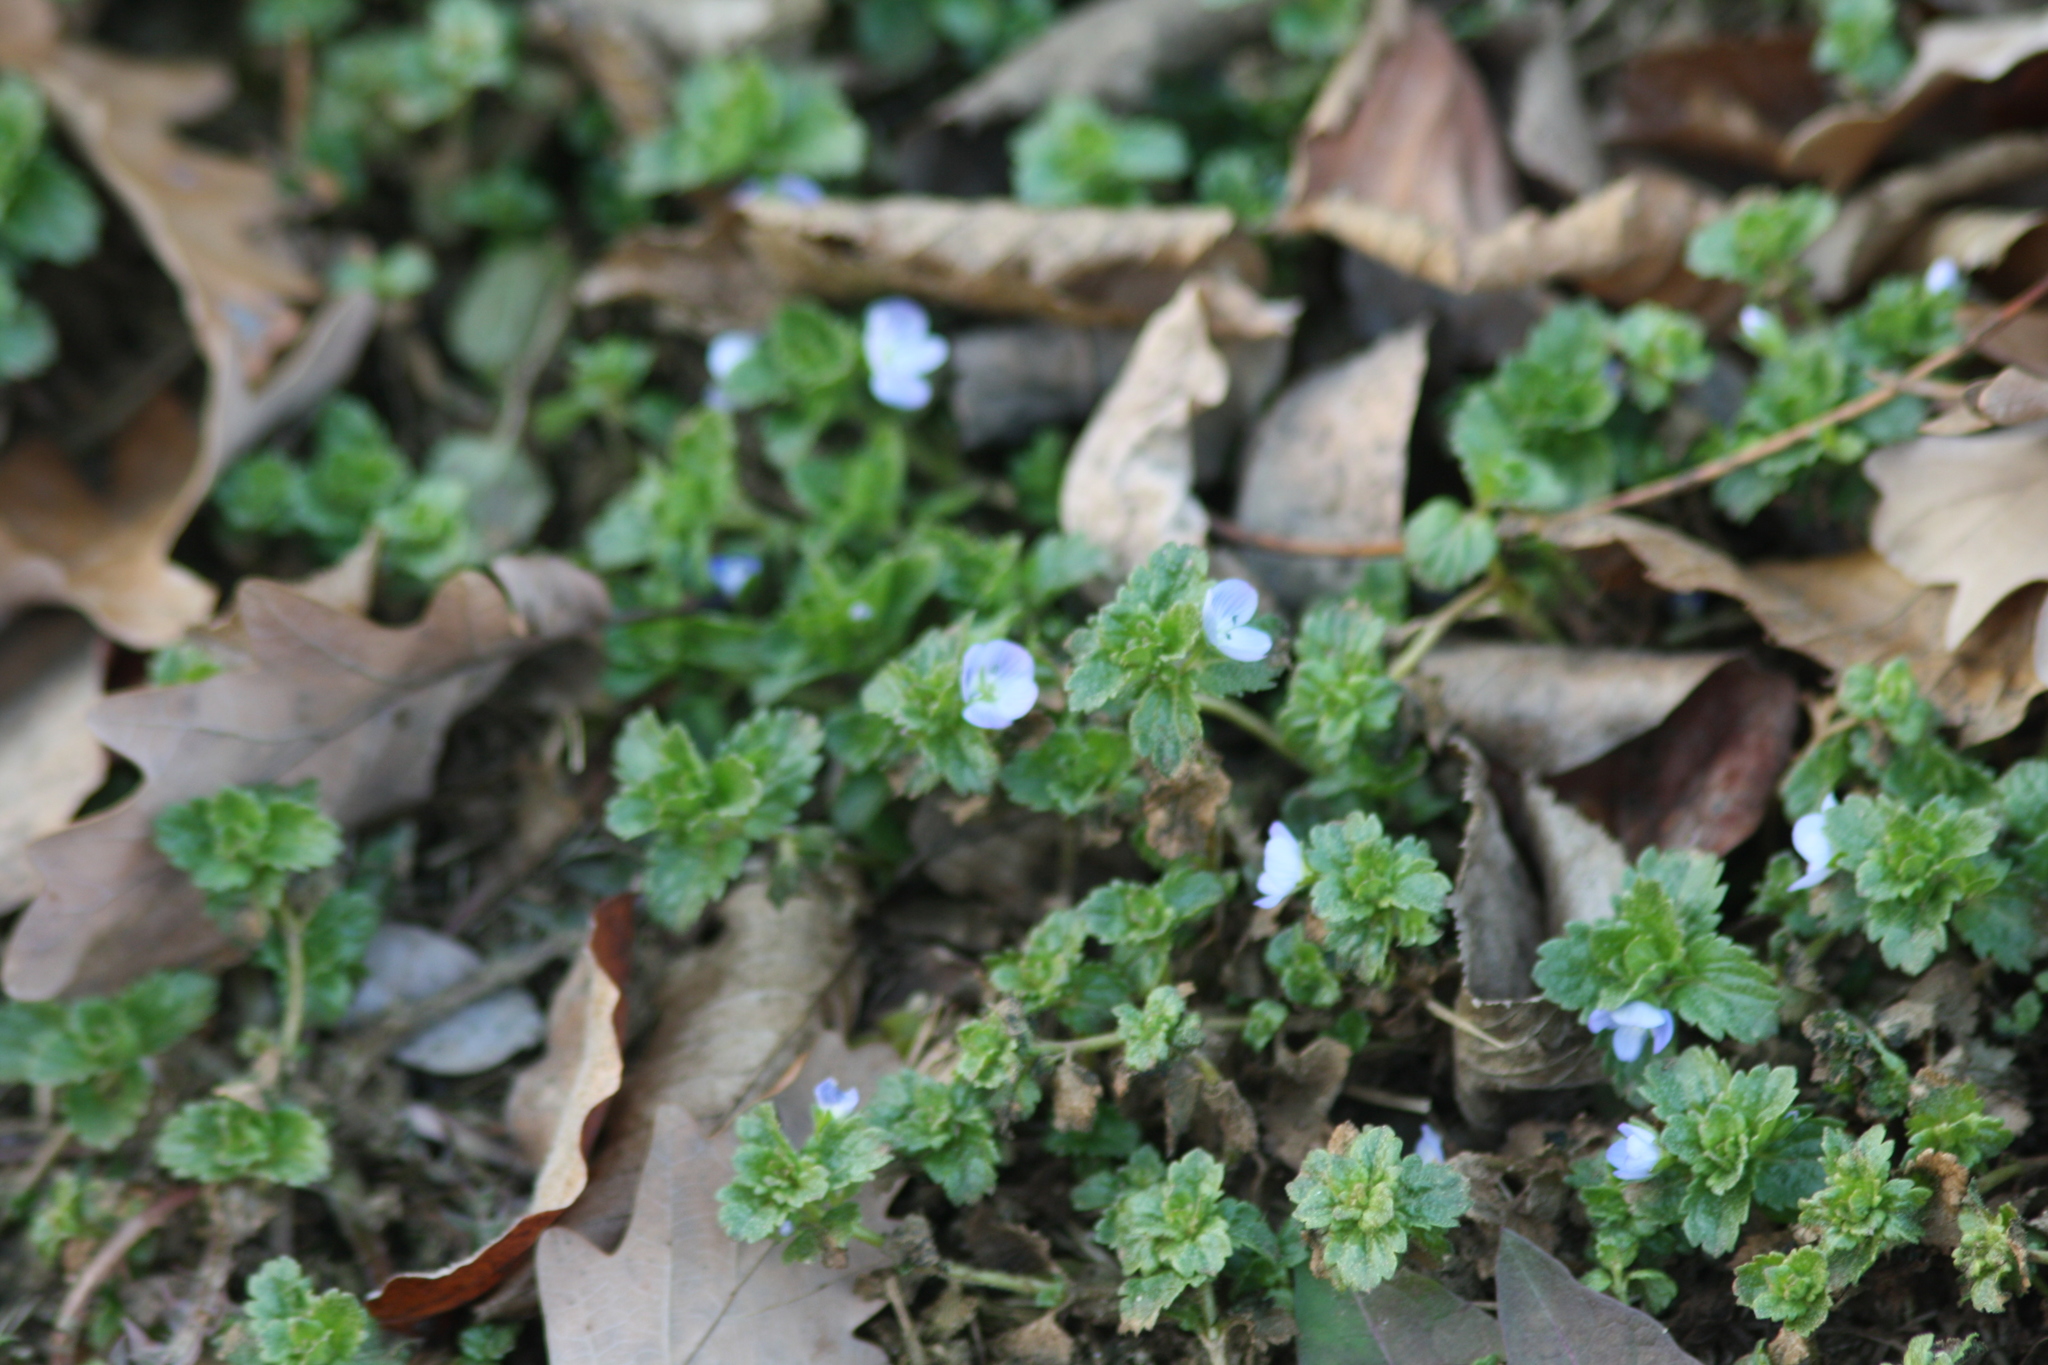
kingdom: Plantae
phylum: Tracheophyta
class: Magnoliopsida
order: Lamiales
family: Plantaginaceae
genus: Veronica
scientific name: Veronica persica
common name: Common field-speedwell
